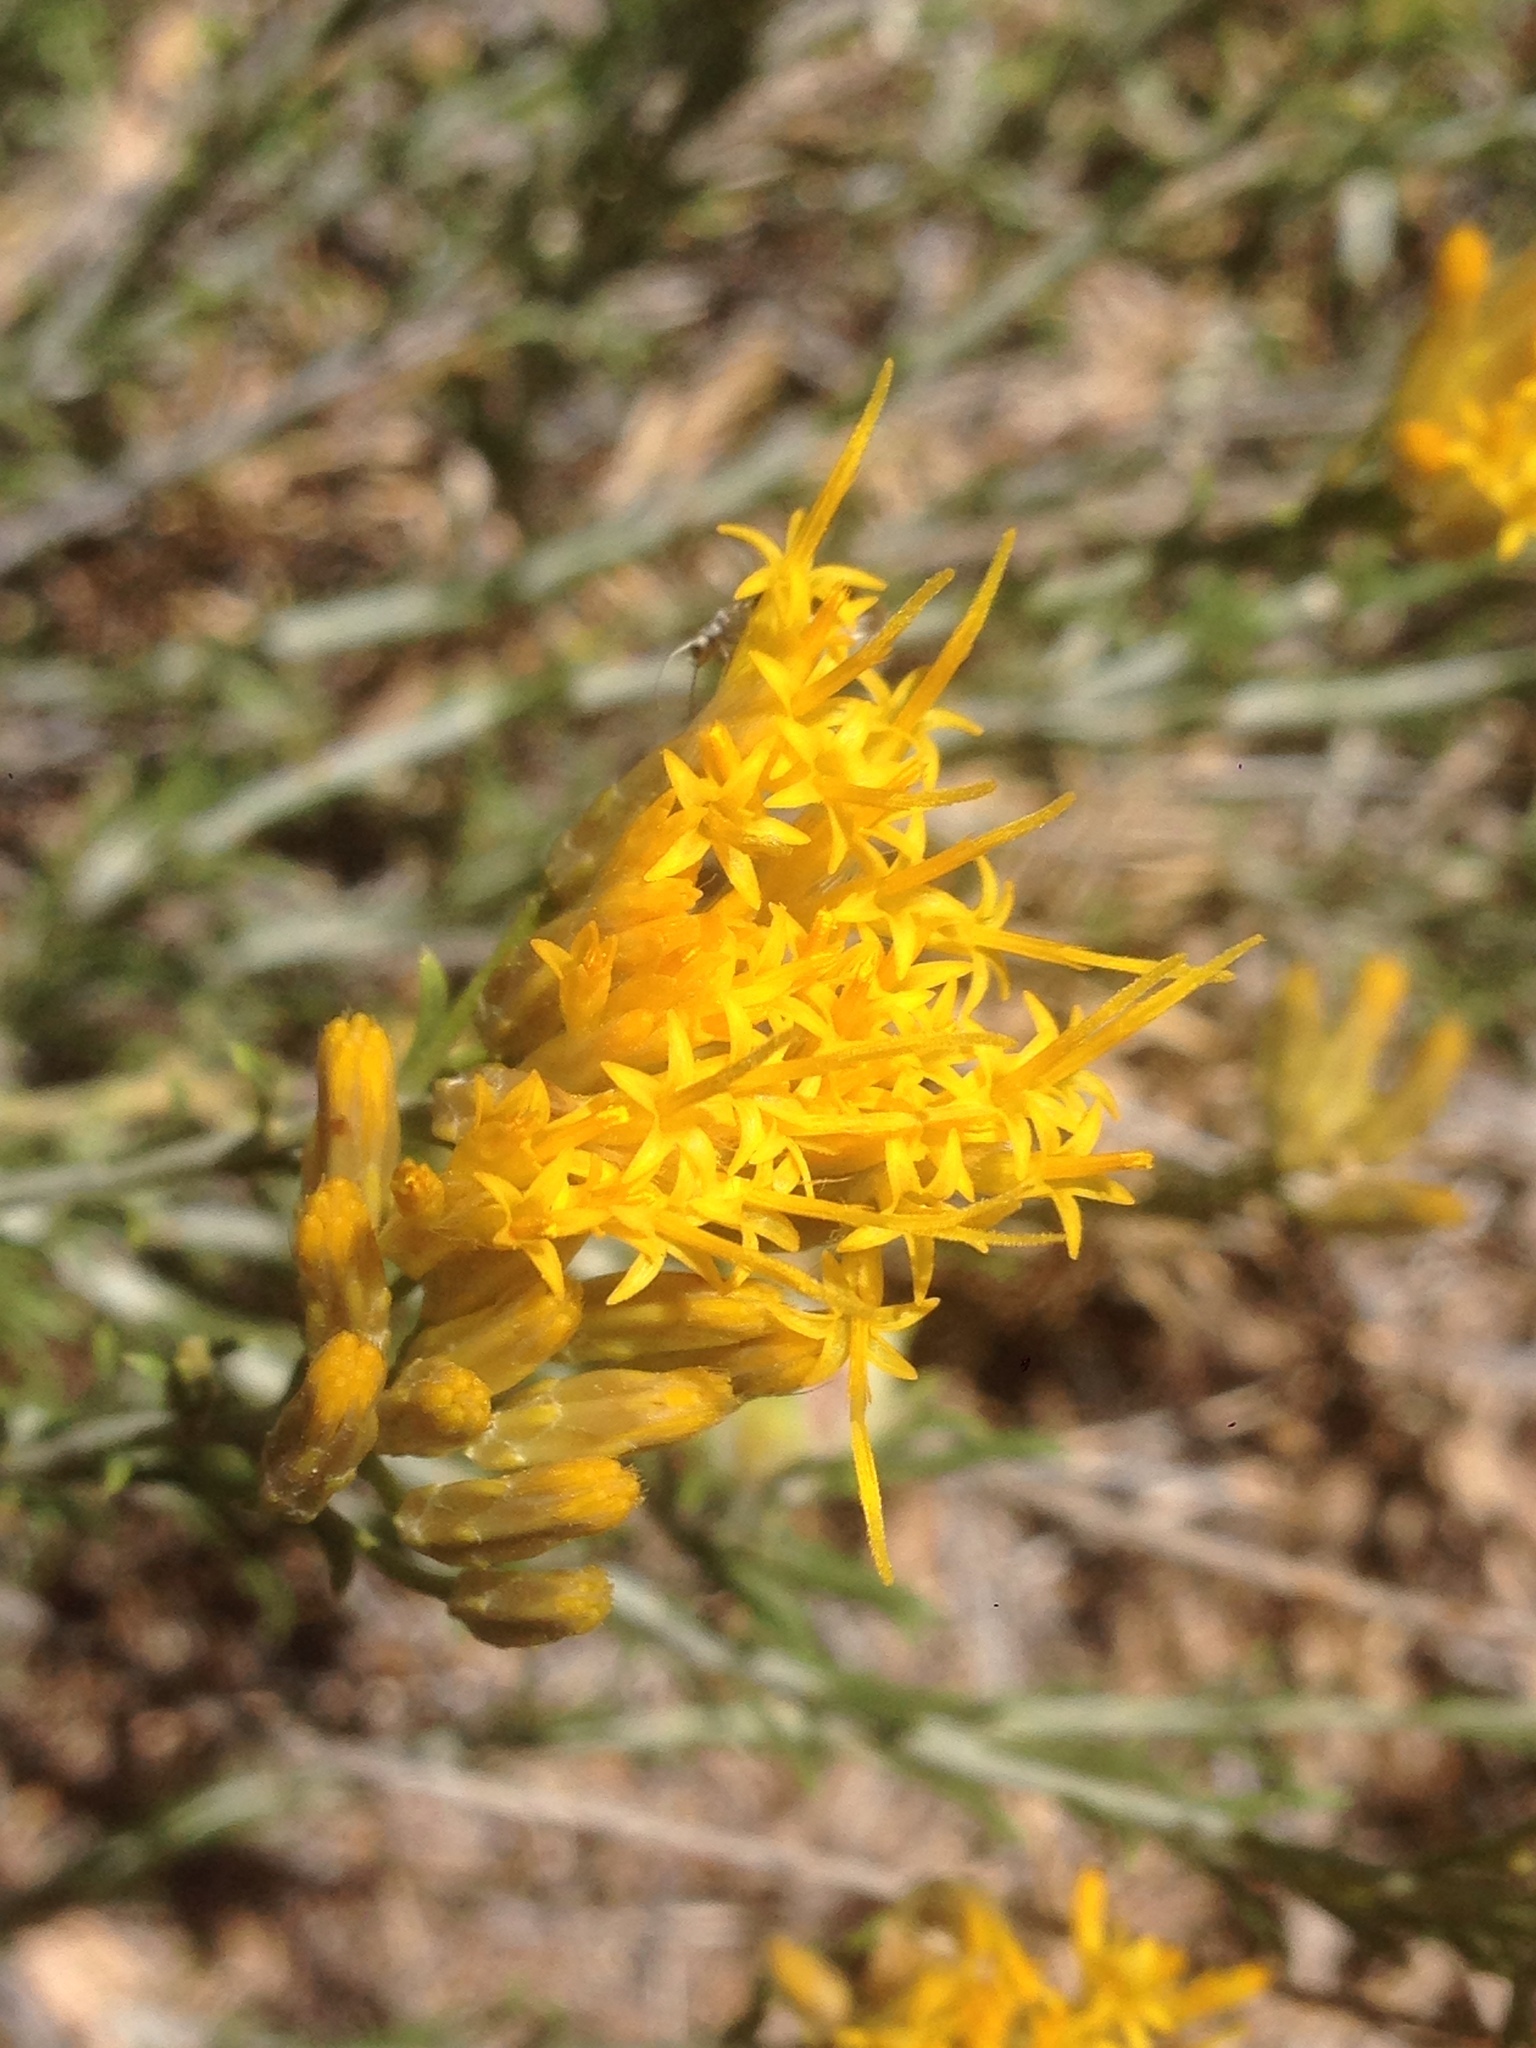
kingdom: Plantae
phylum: Tracheophyta
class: Magnoliopsida
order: Asterales
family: Asteraceae
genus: Chrysothamnus
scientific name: Chrysothamnus viscidiflorus
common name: Yellow rabbitbrush
